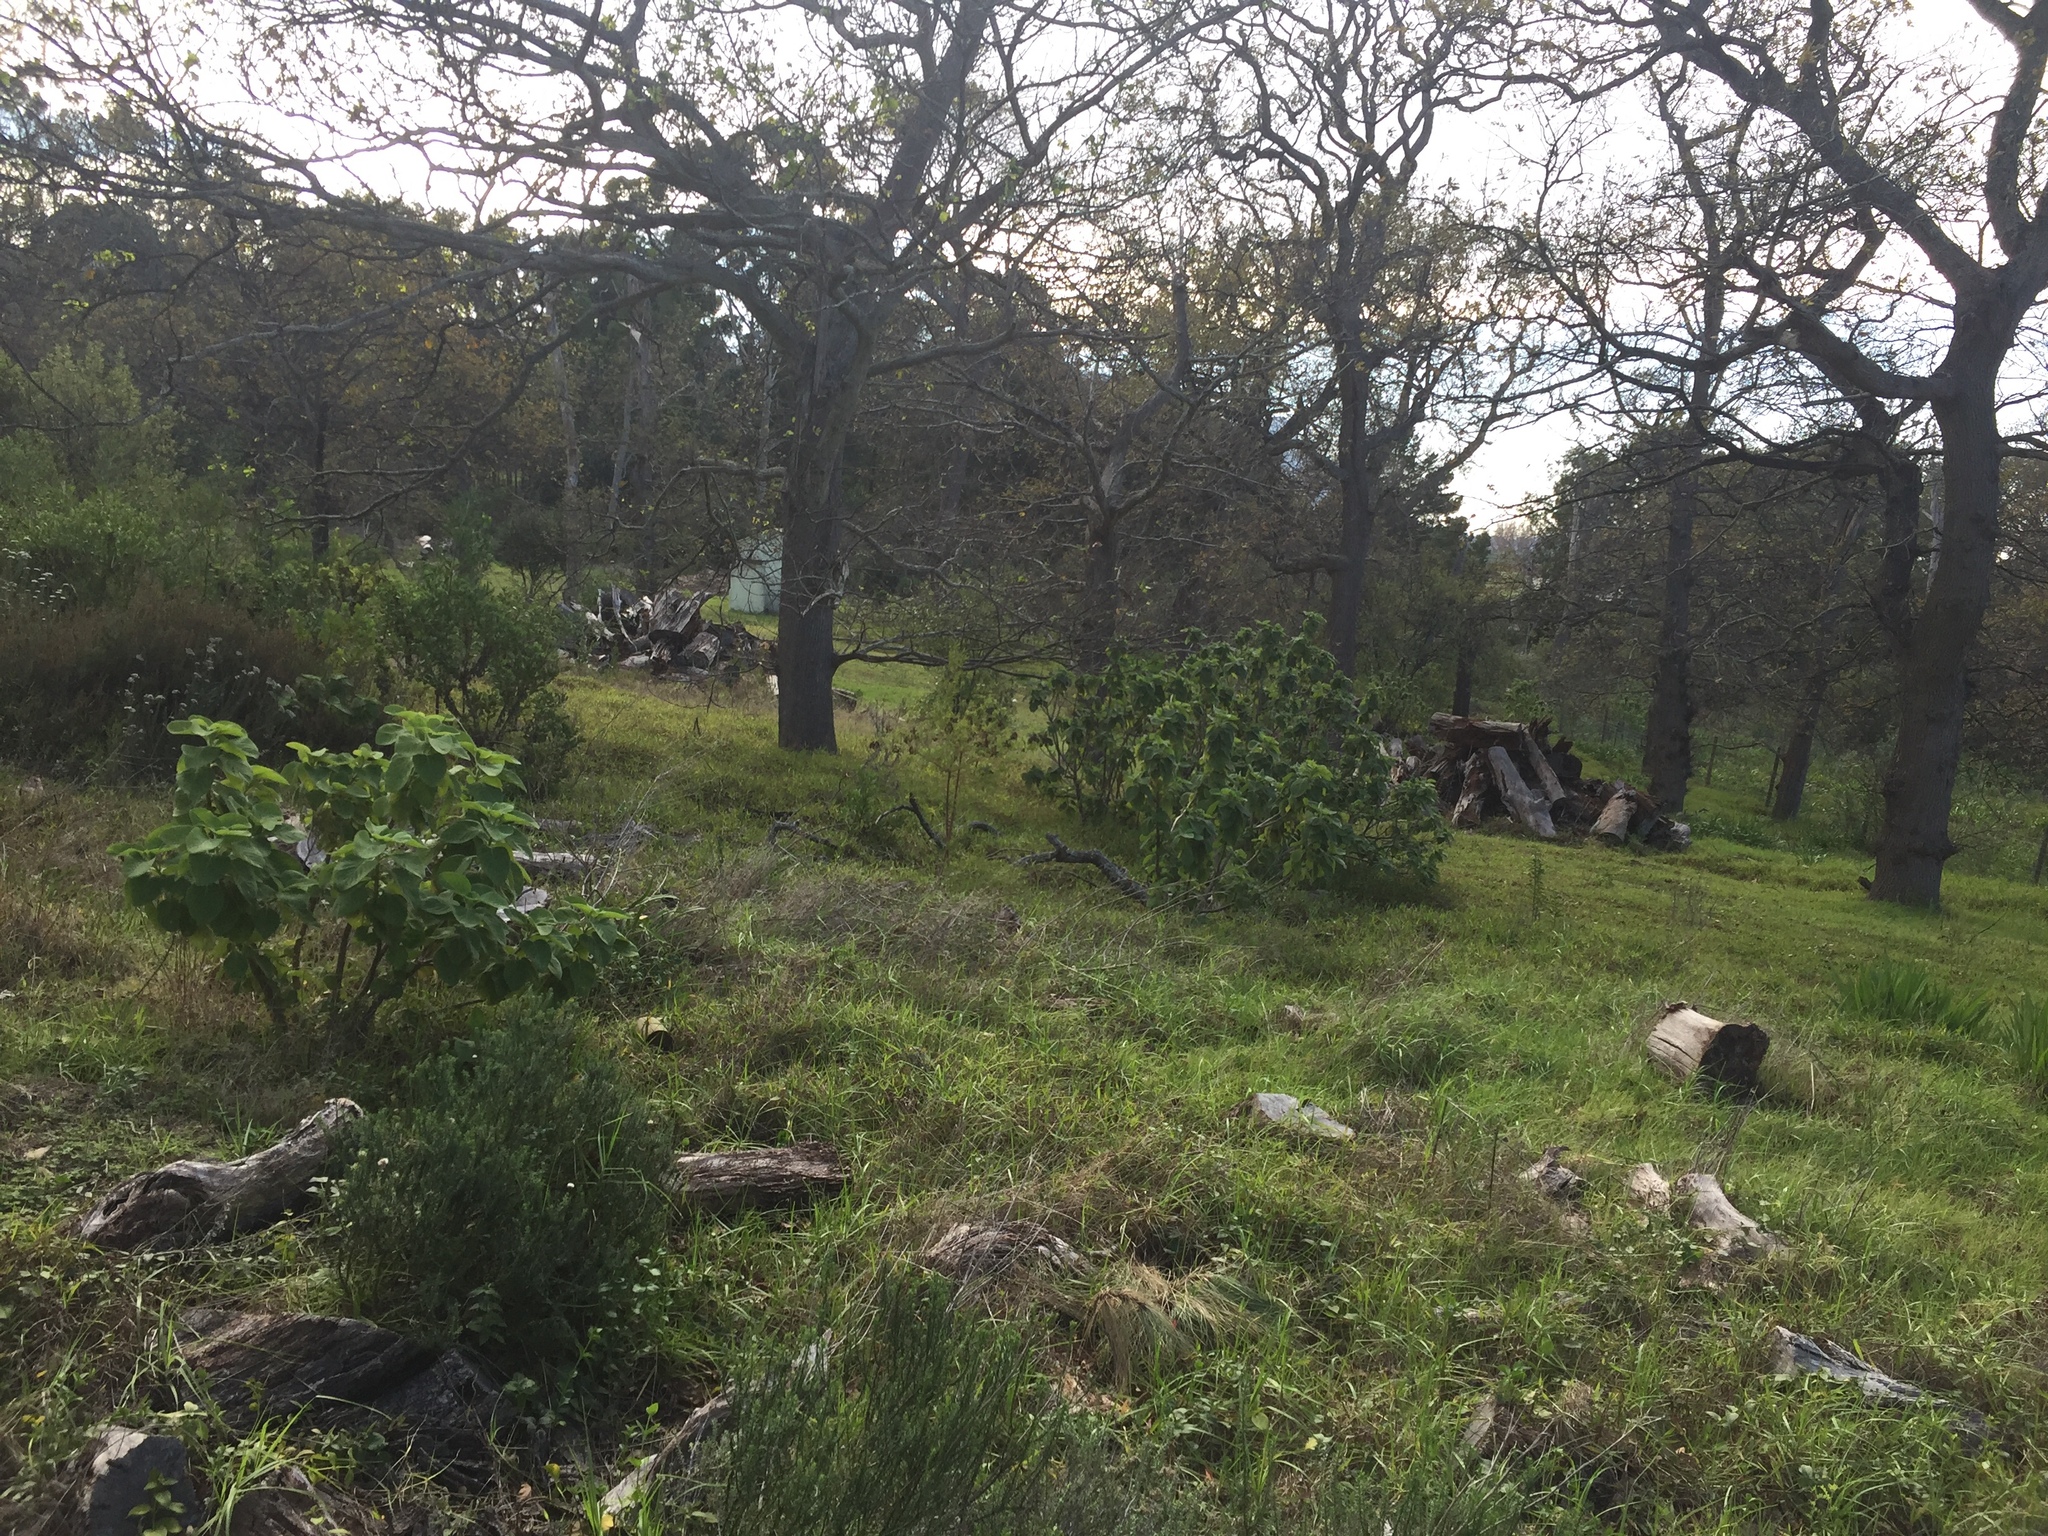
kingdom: Plantae
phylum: Tracheophyta
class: Magnoliopsida
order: Lamiales
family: Lamiaceae
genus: Coleus
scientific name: Coleus barbatus
